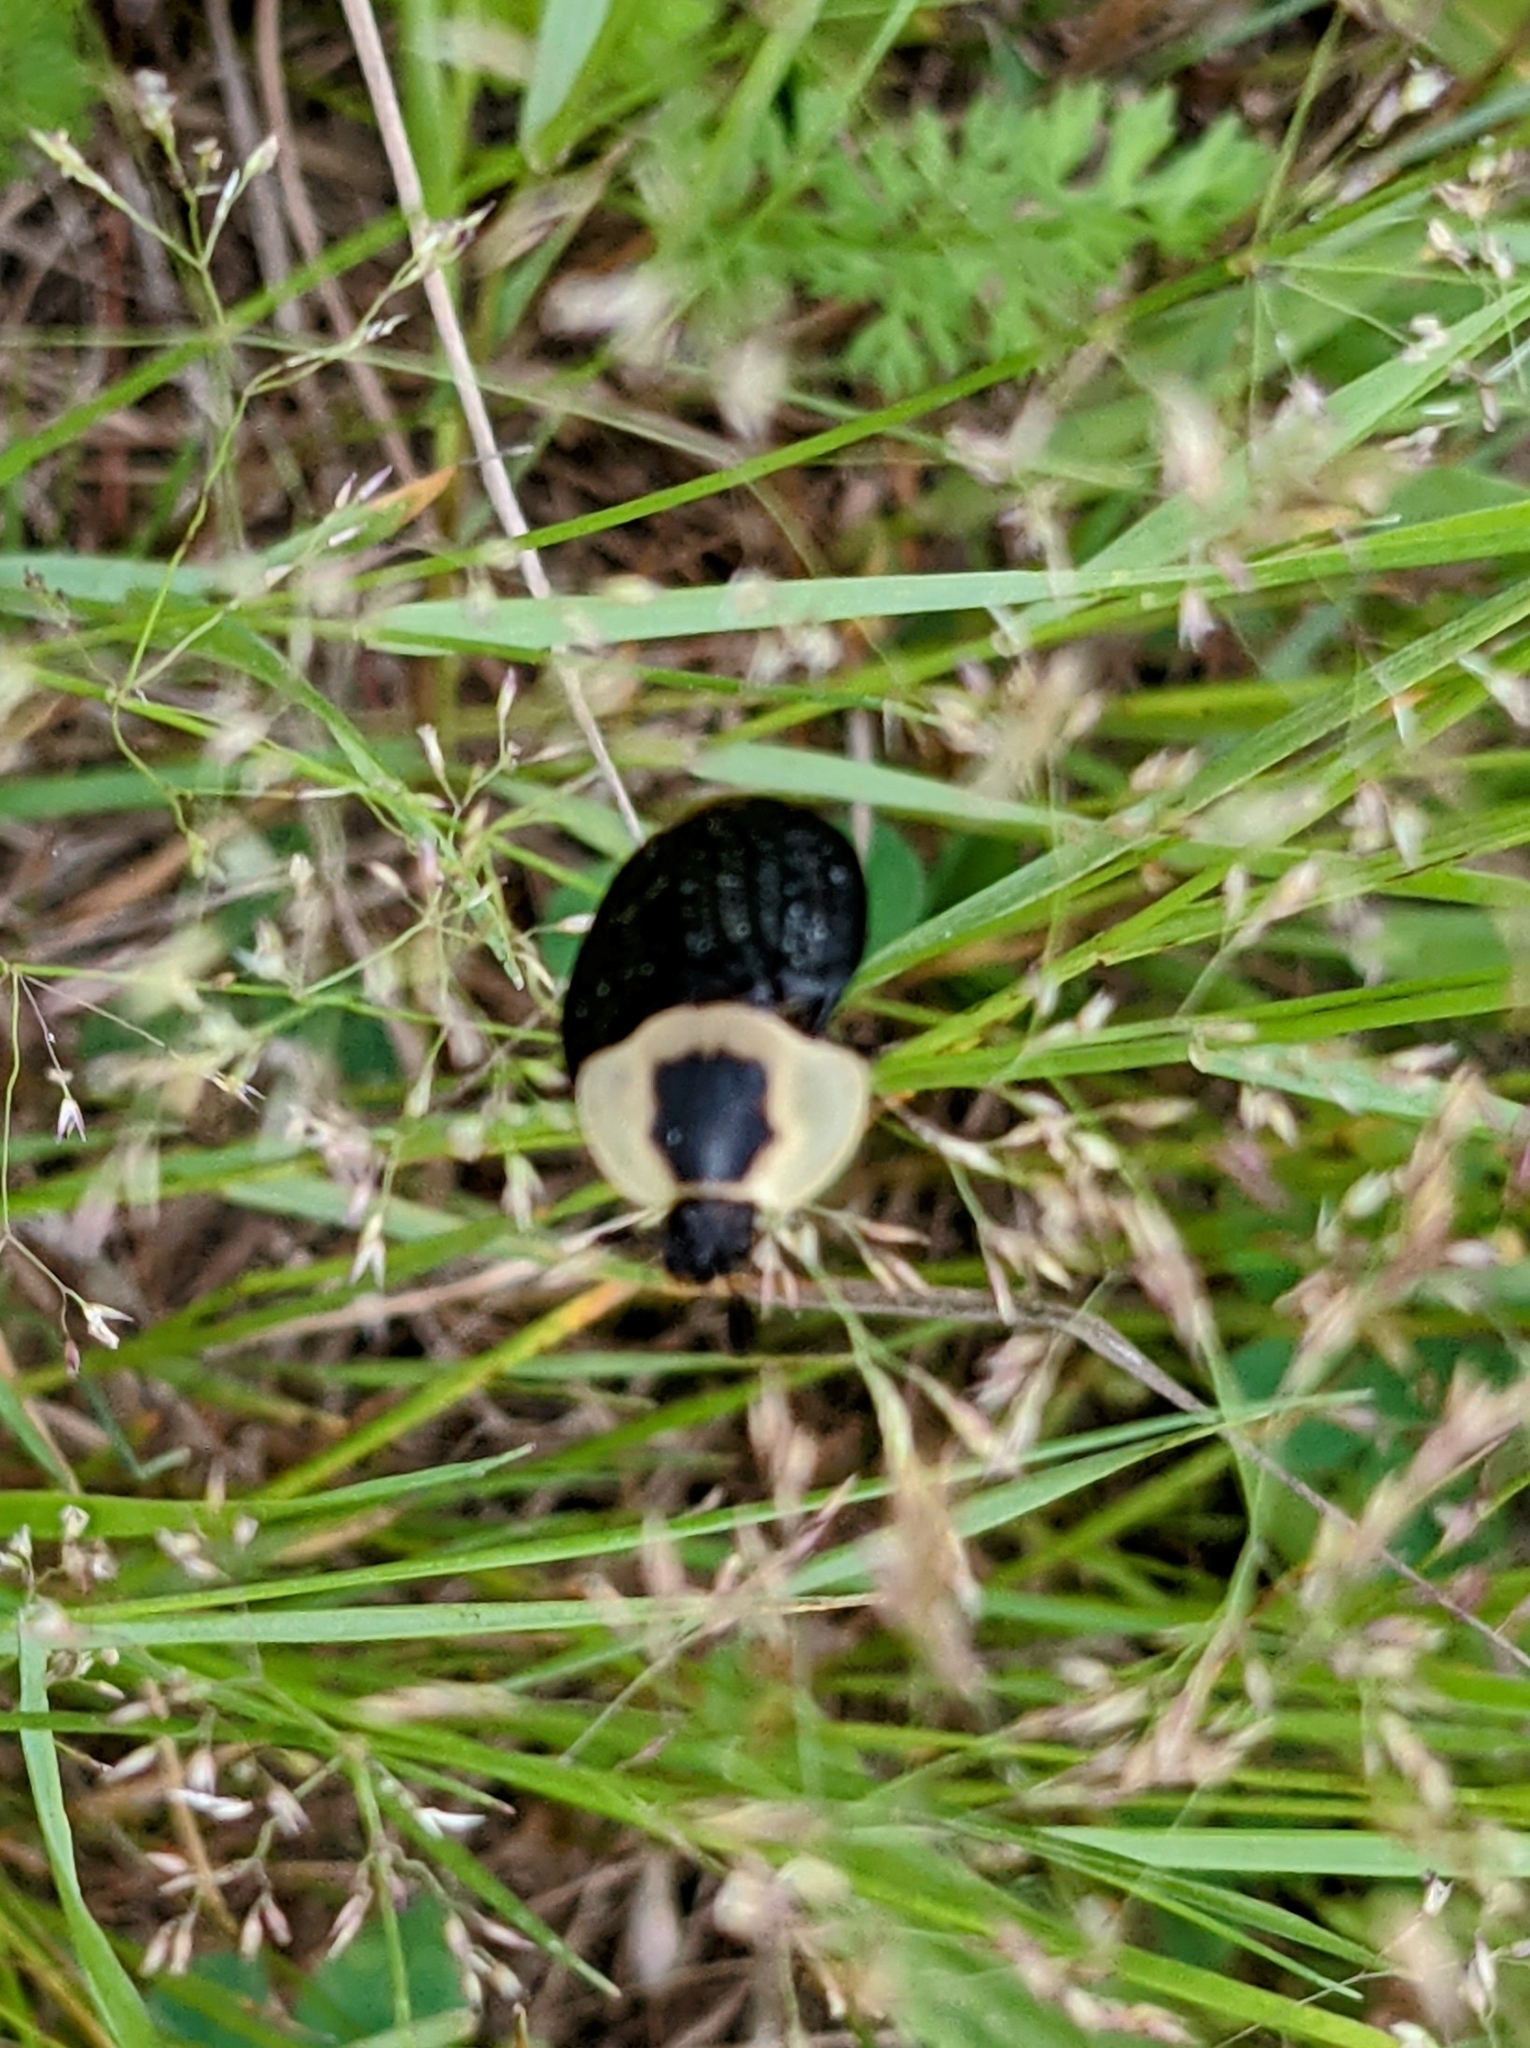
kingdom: Animalia
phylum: Arthropoda
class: Insecta
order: Coleoptera
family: Staphylinidae
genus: Necrophila
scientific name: Necrophila americana
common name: American carrion beetle
